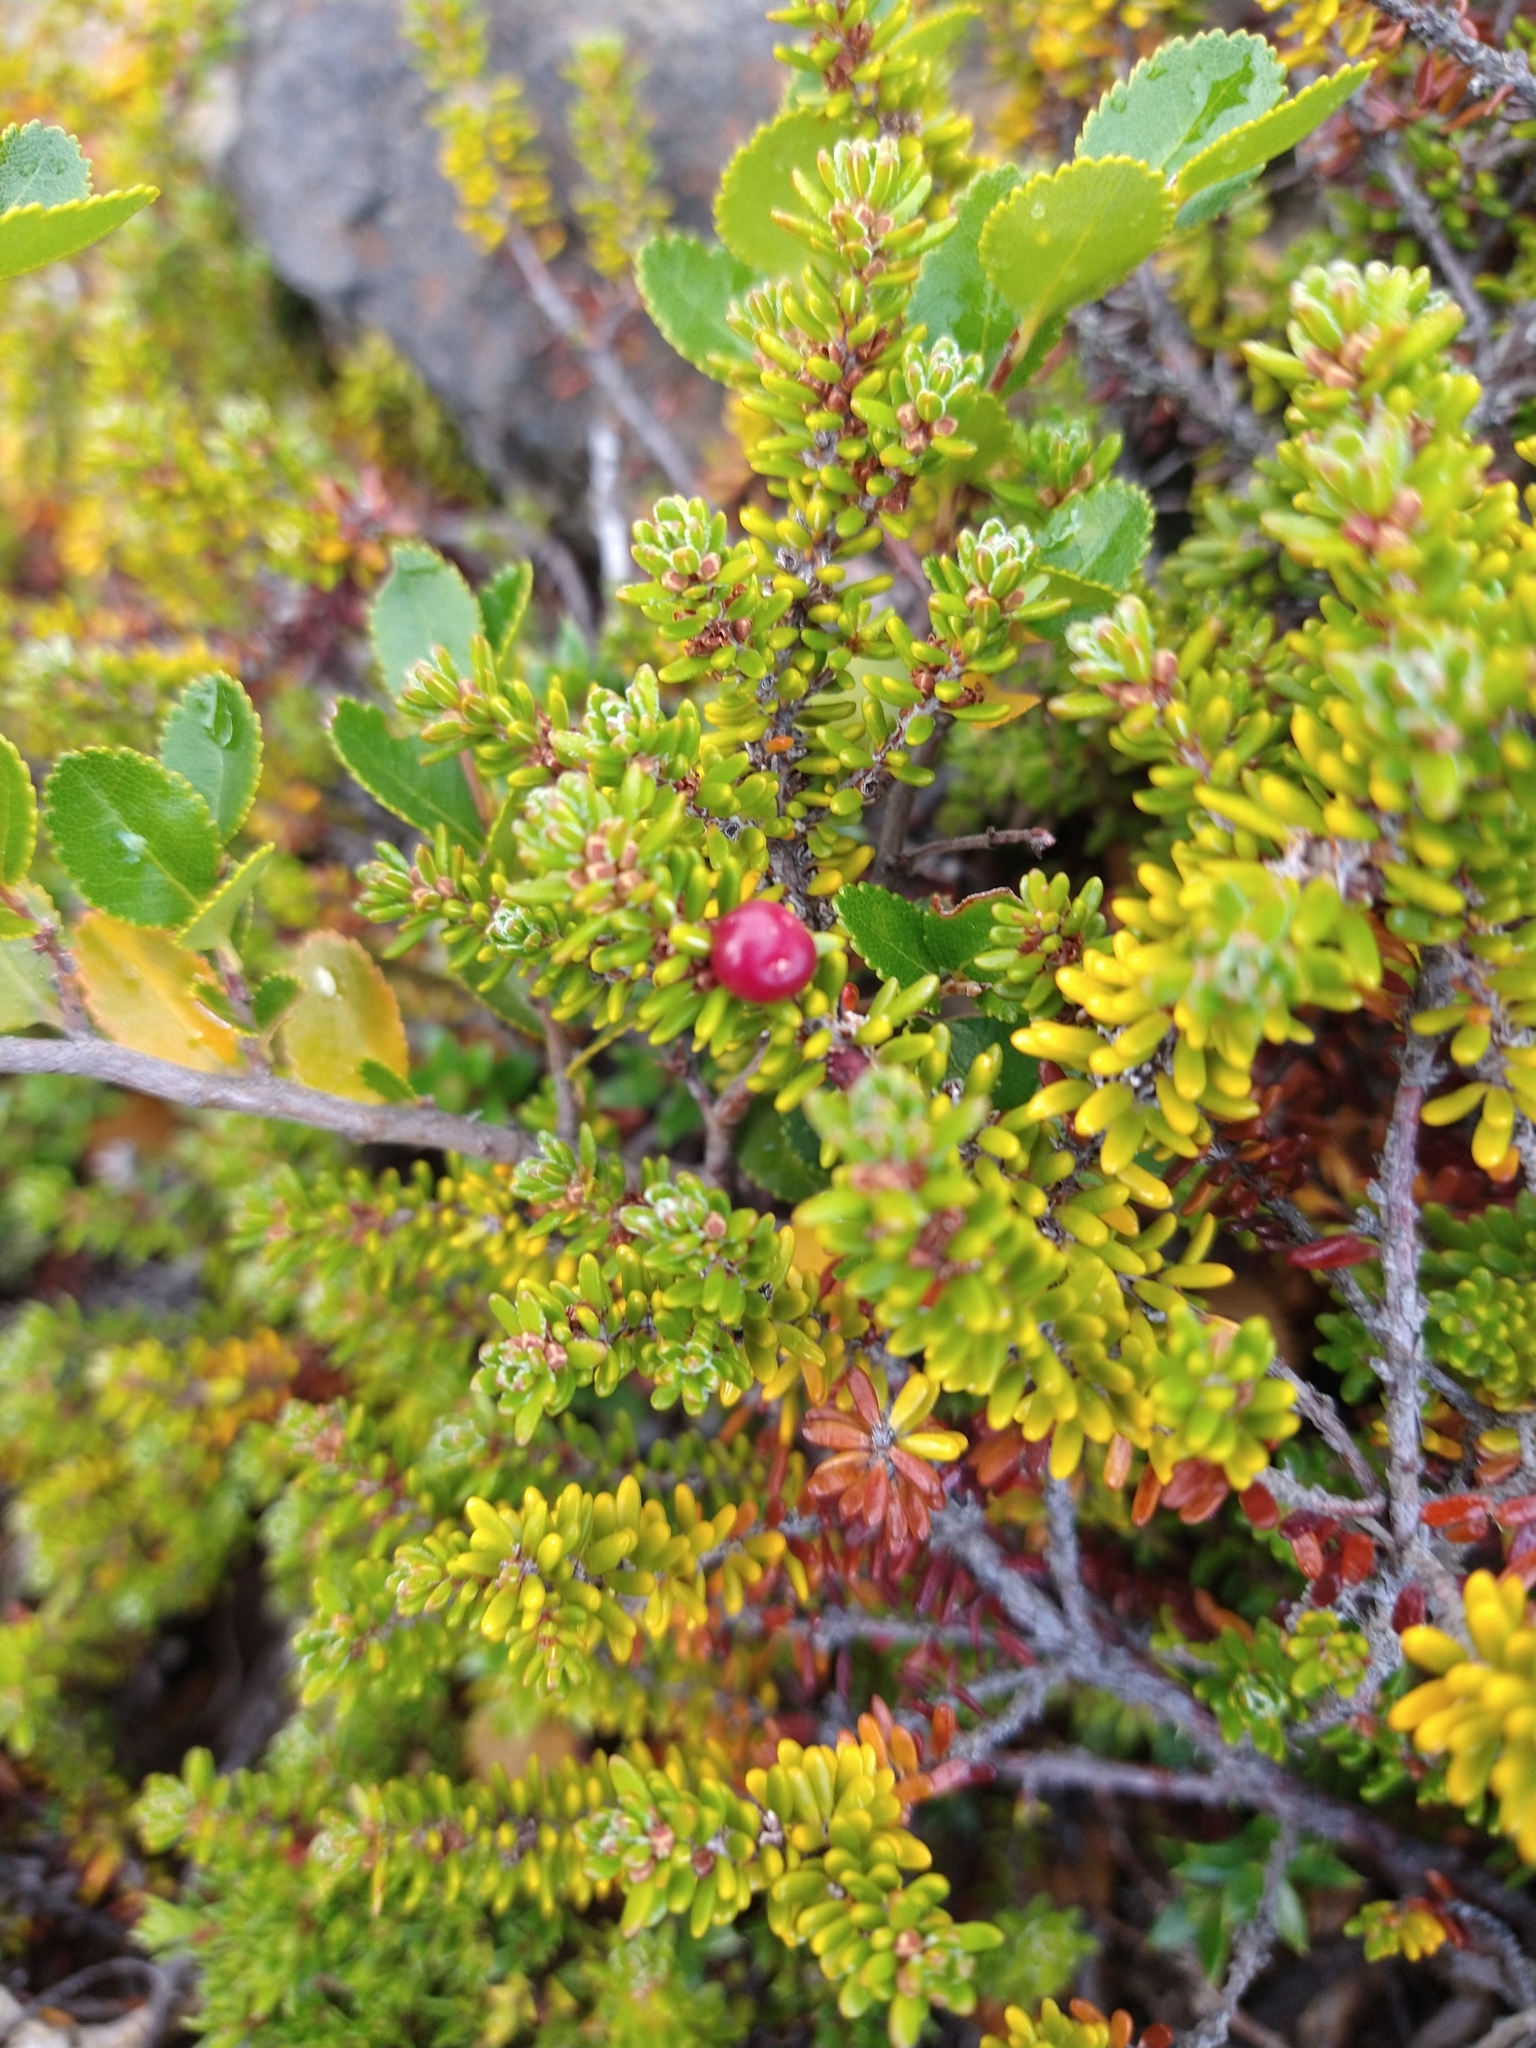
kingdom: Plantae
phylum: Tracheophyta
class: Magnoliopsida
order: Ericales
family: Ericaceae
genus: Empetrum
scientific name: Empetrum rubrum
